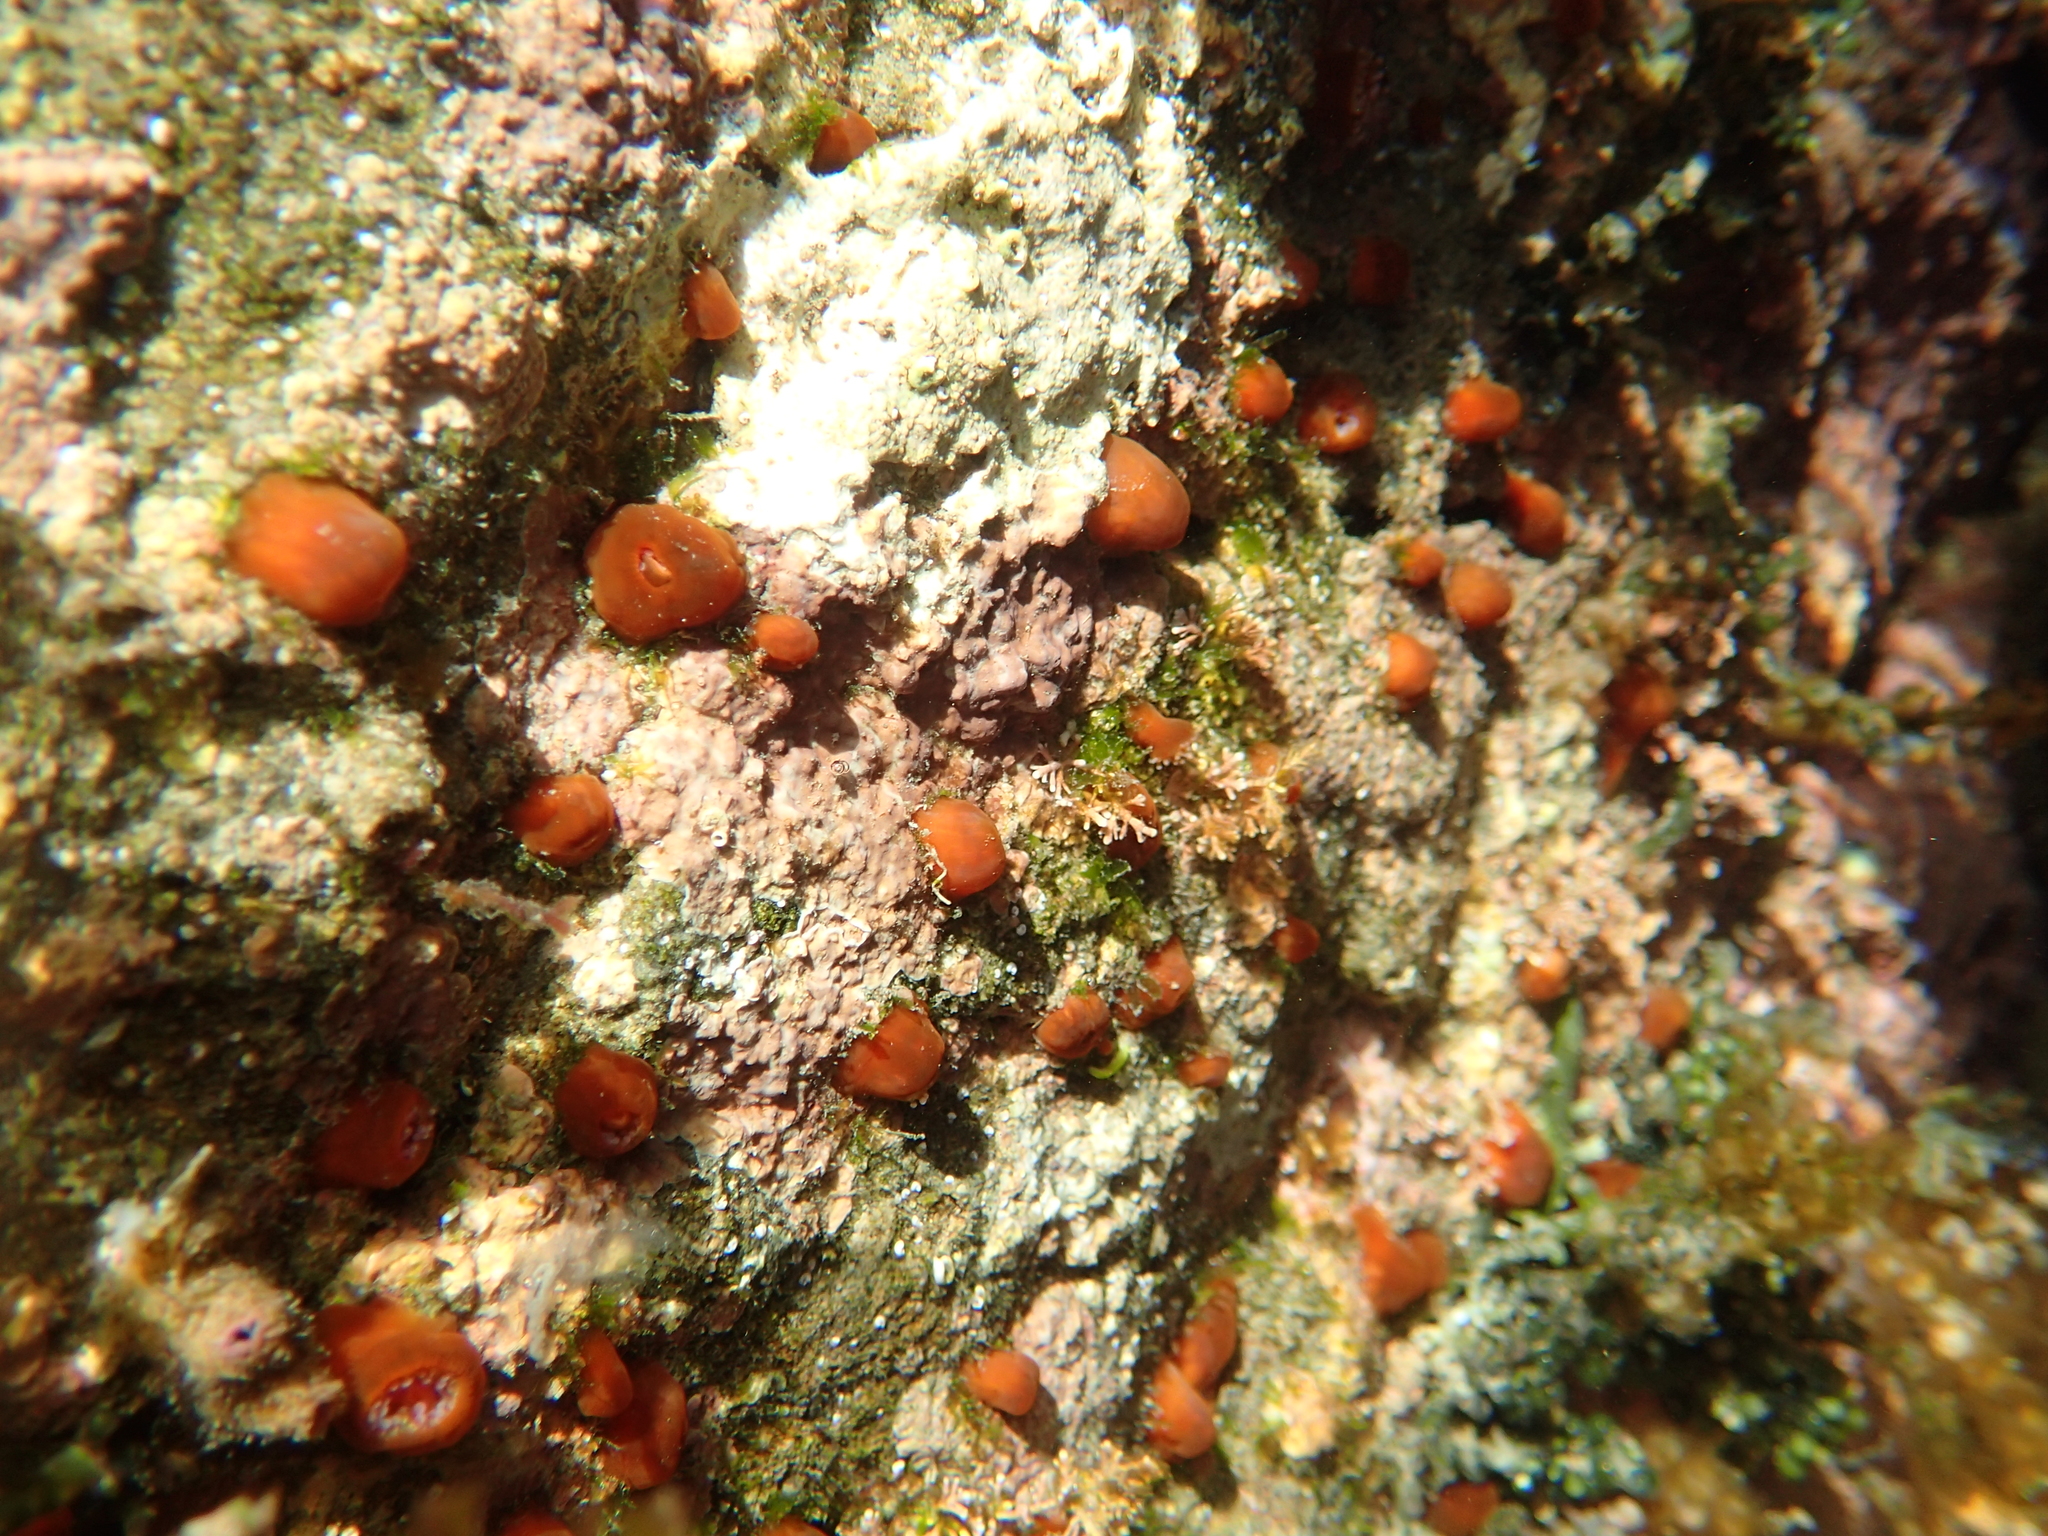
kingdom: Animalia
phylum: Cnidaria
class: Anthozoa
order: Corallimorpharia
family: Corallimorphidae
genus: Corynactis
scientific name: Corynactis australis
